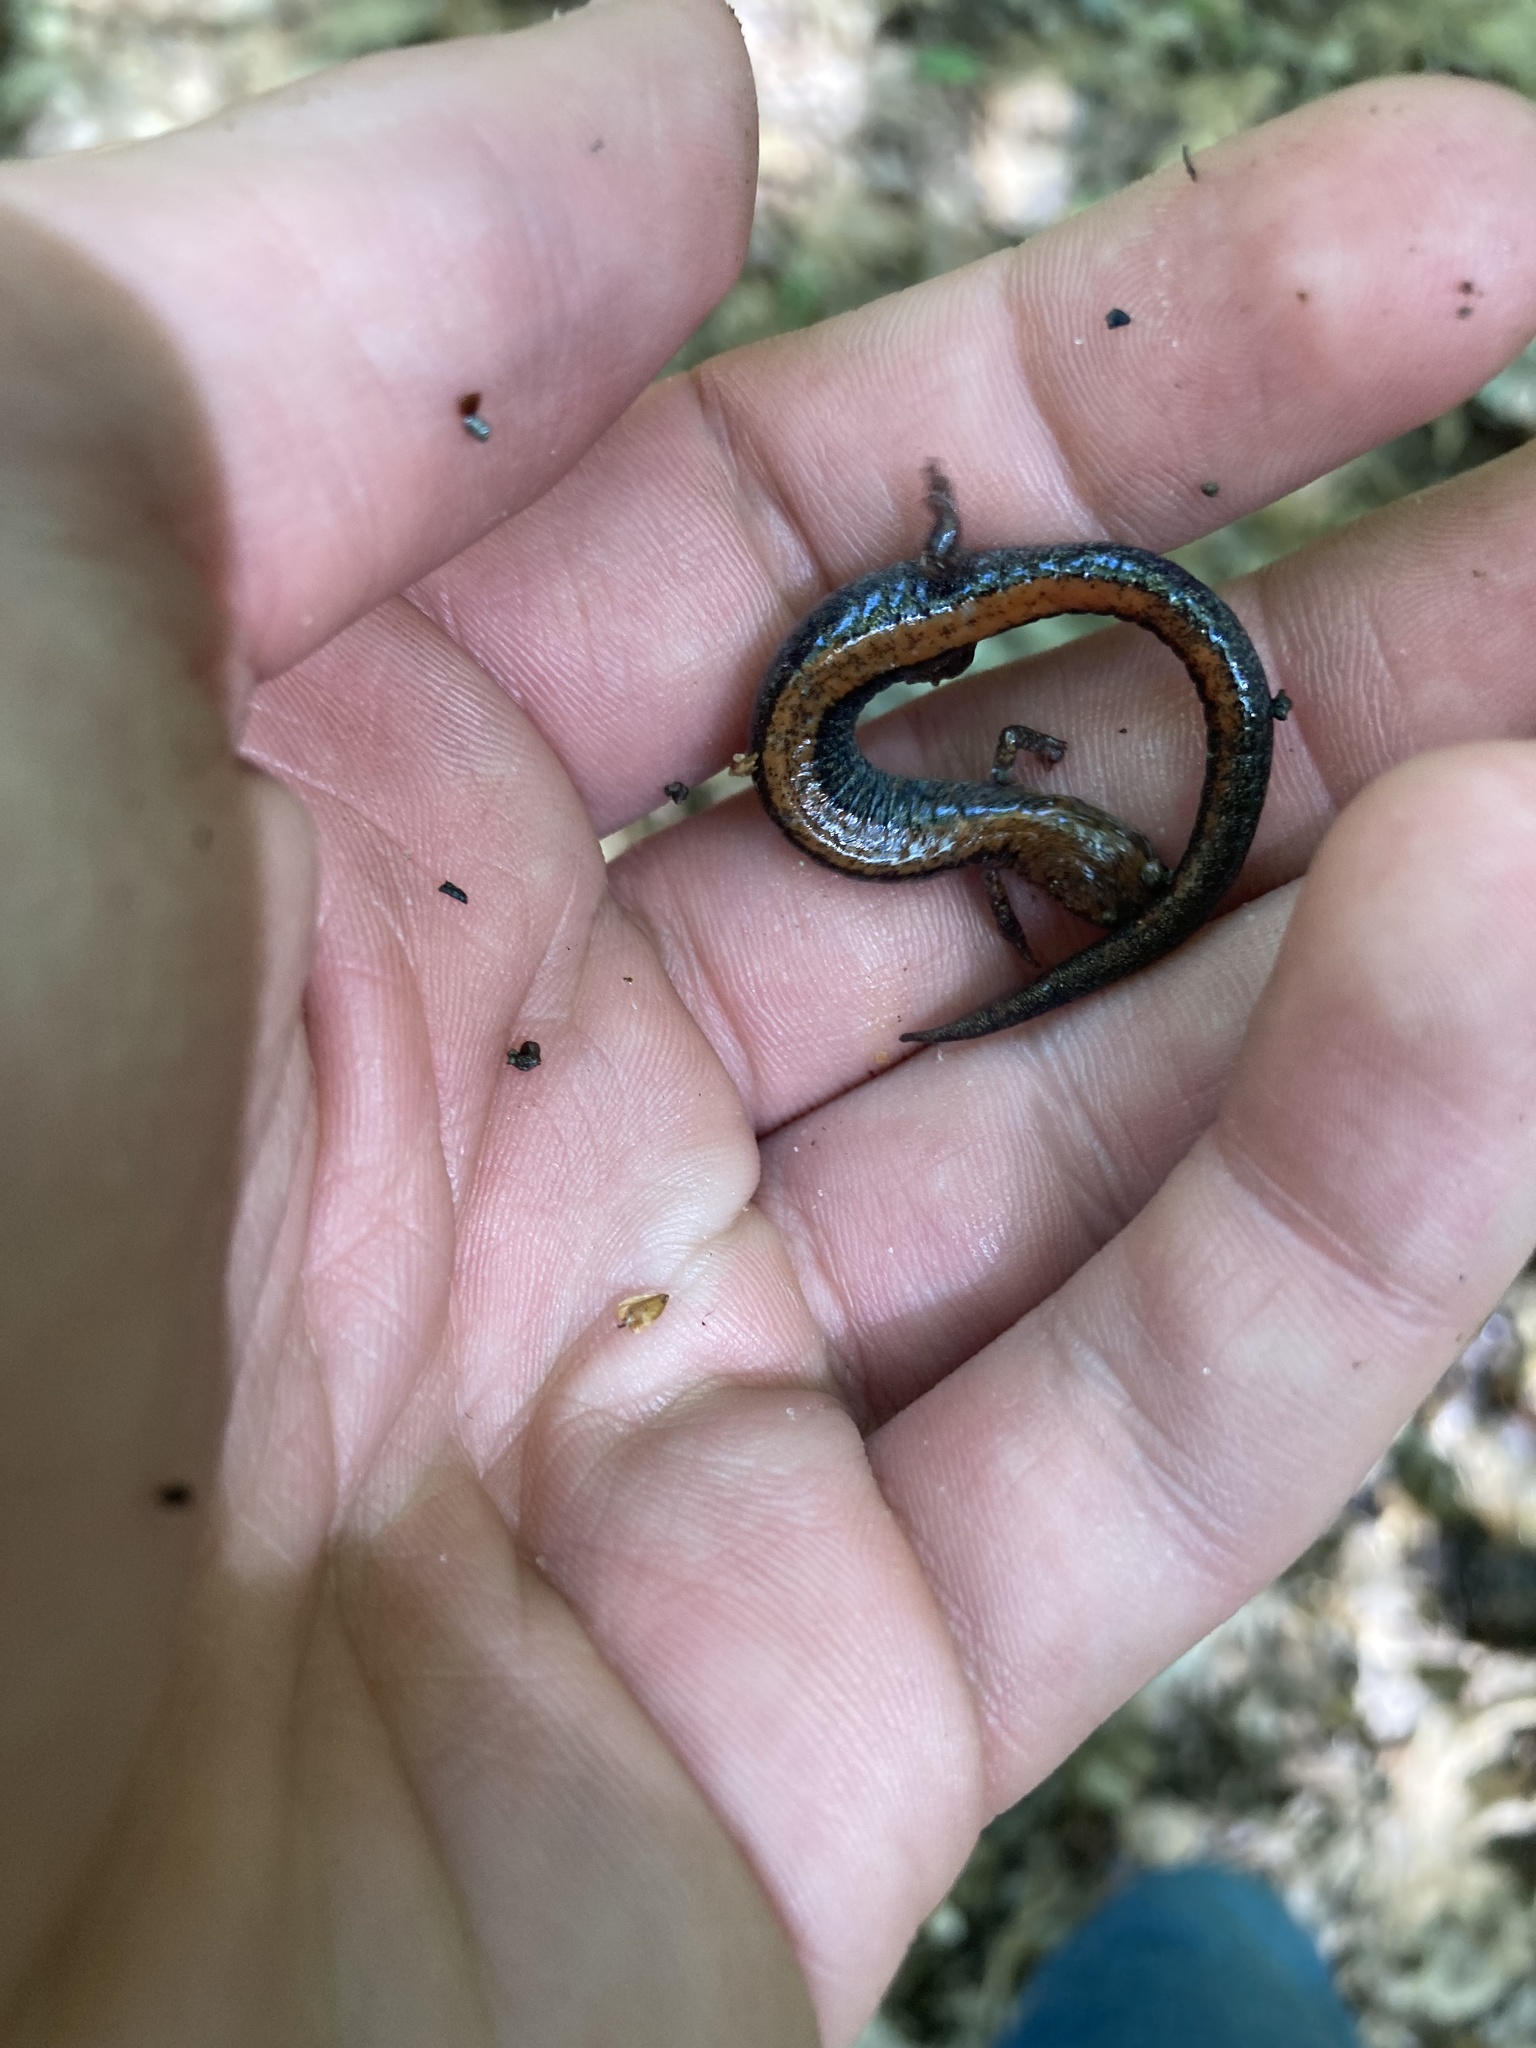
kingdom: Animalia
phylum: Chordata
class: Amphibia
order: Caudata
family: Plethodontidae
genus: Plethodon
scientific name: Plethodon cinereus
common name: Redback salamander
